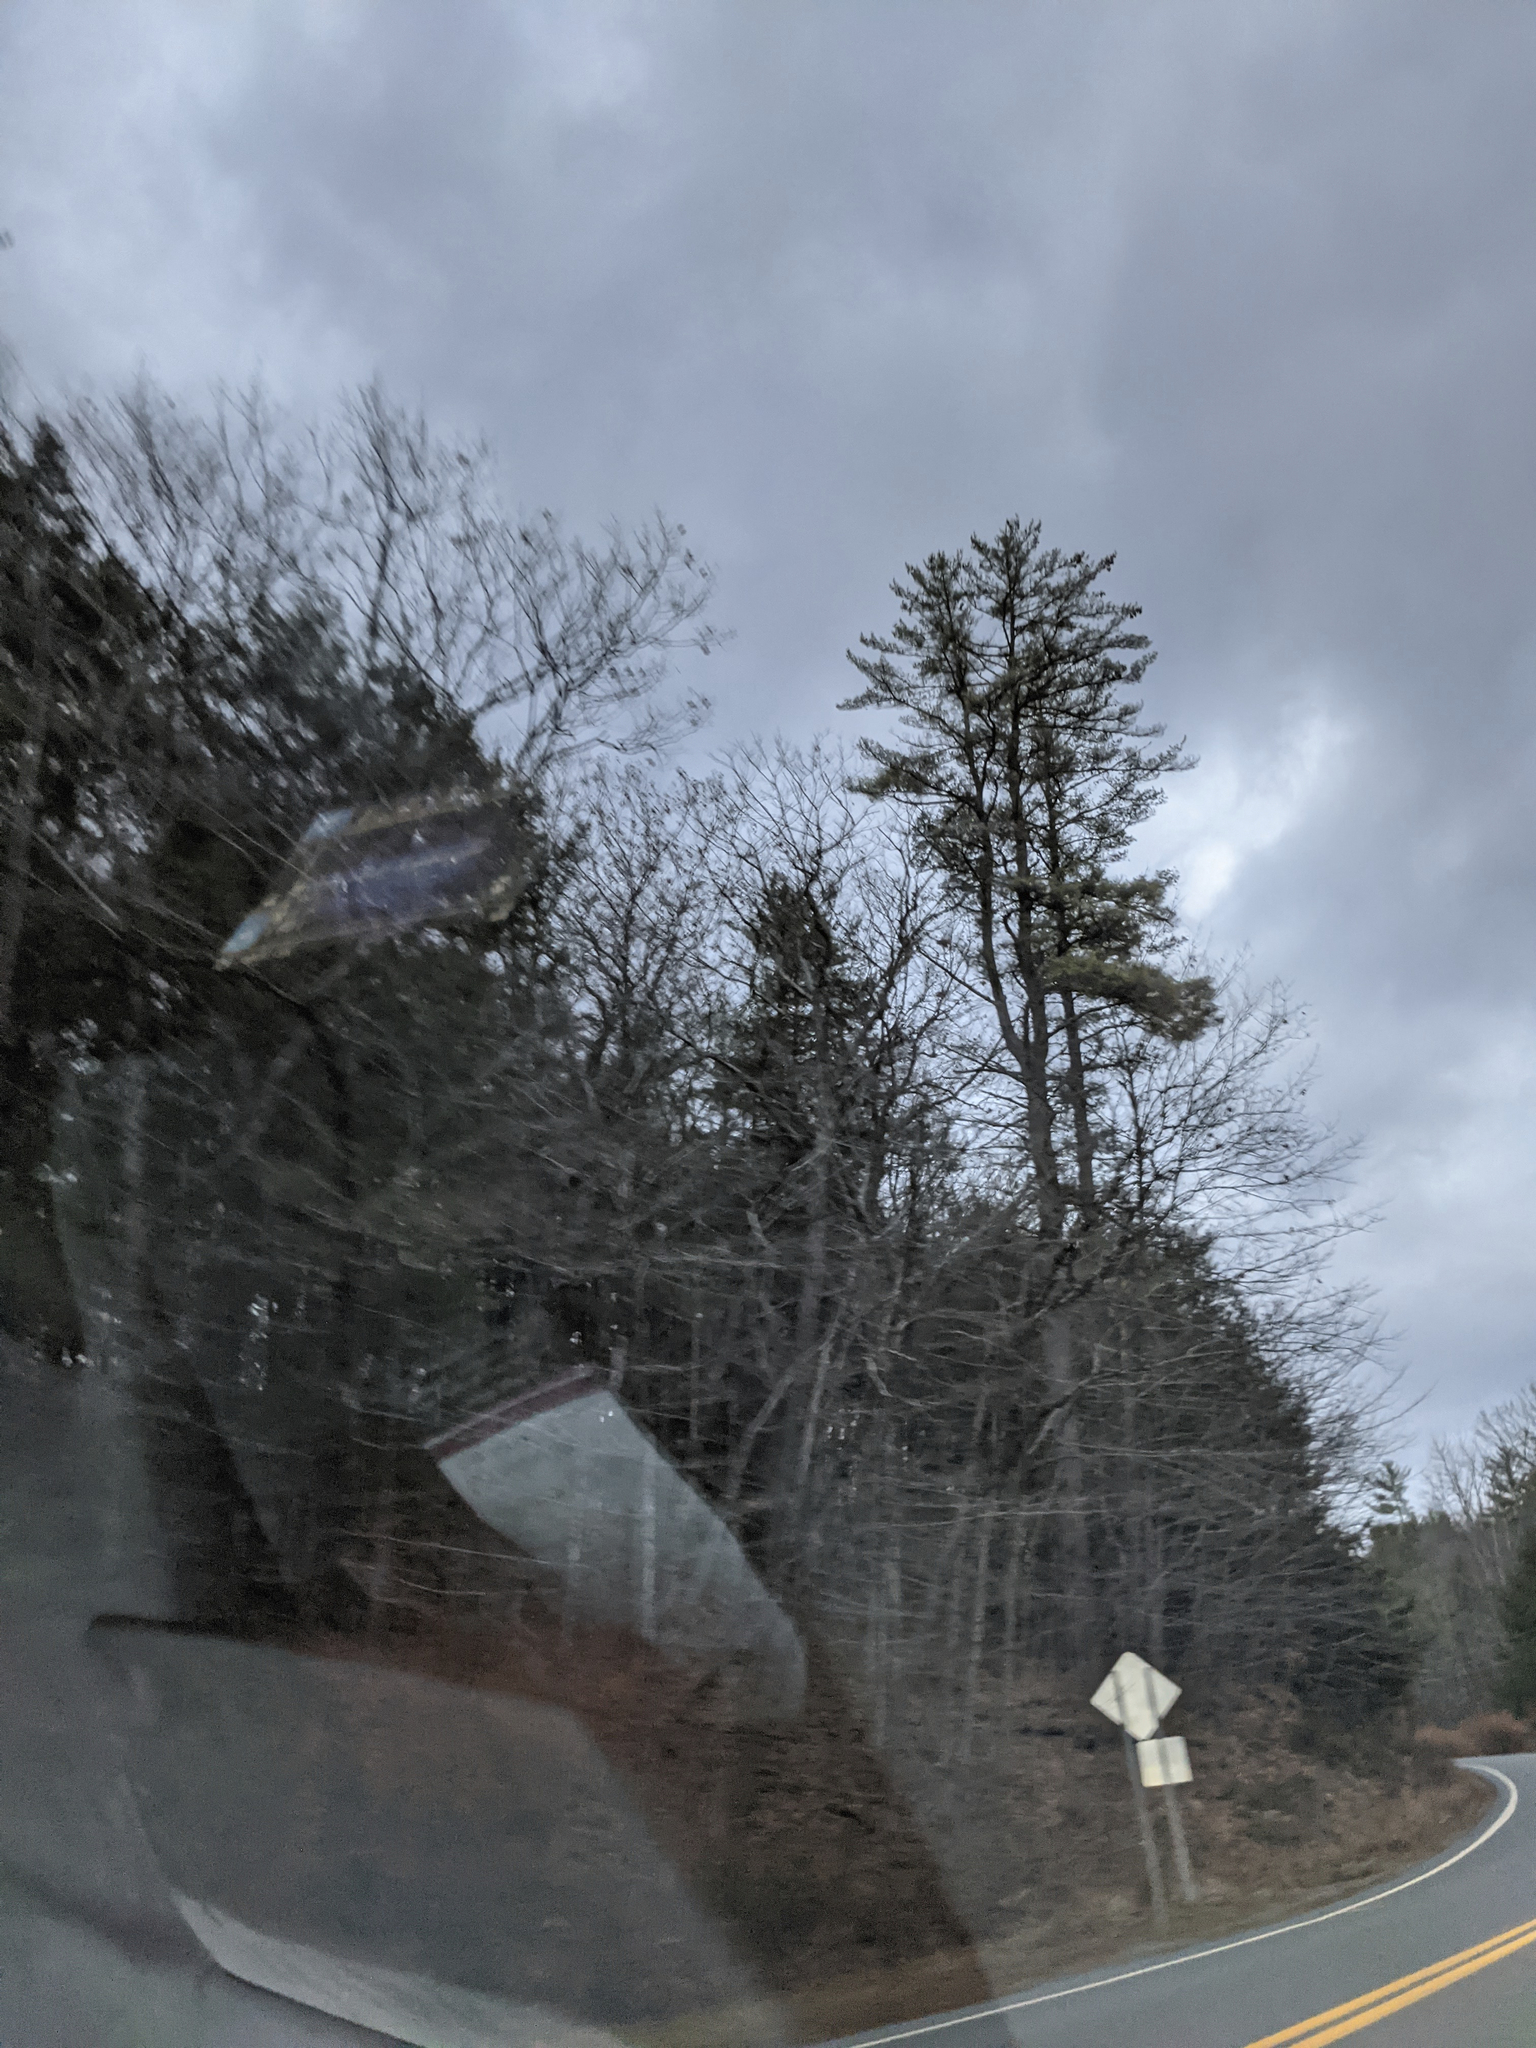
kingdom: Plantae
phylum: Tracheophyta
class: Pinopsida
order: Pinales
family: Pinaceae
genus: Pinus
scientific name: Pinus strobus
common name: Weymouth pine
